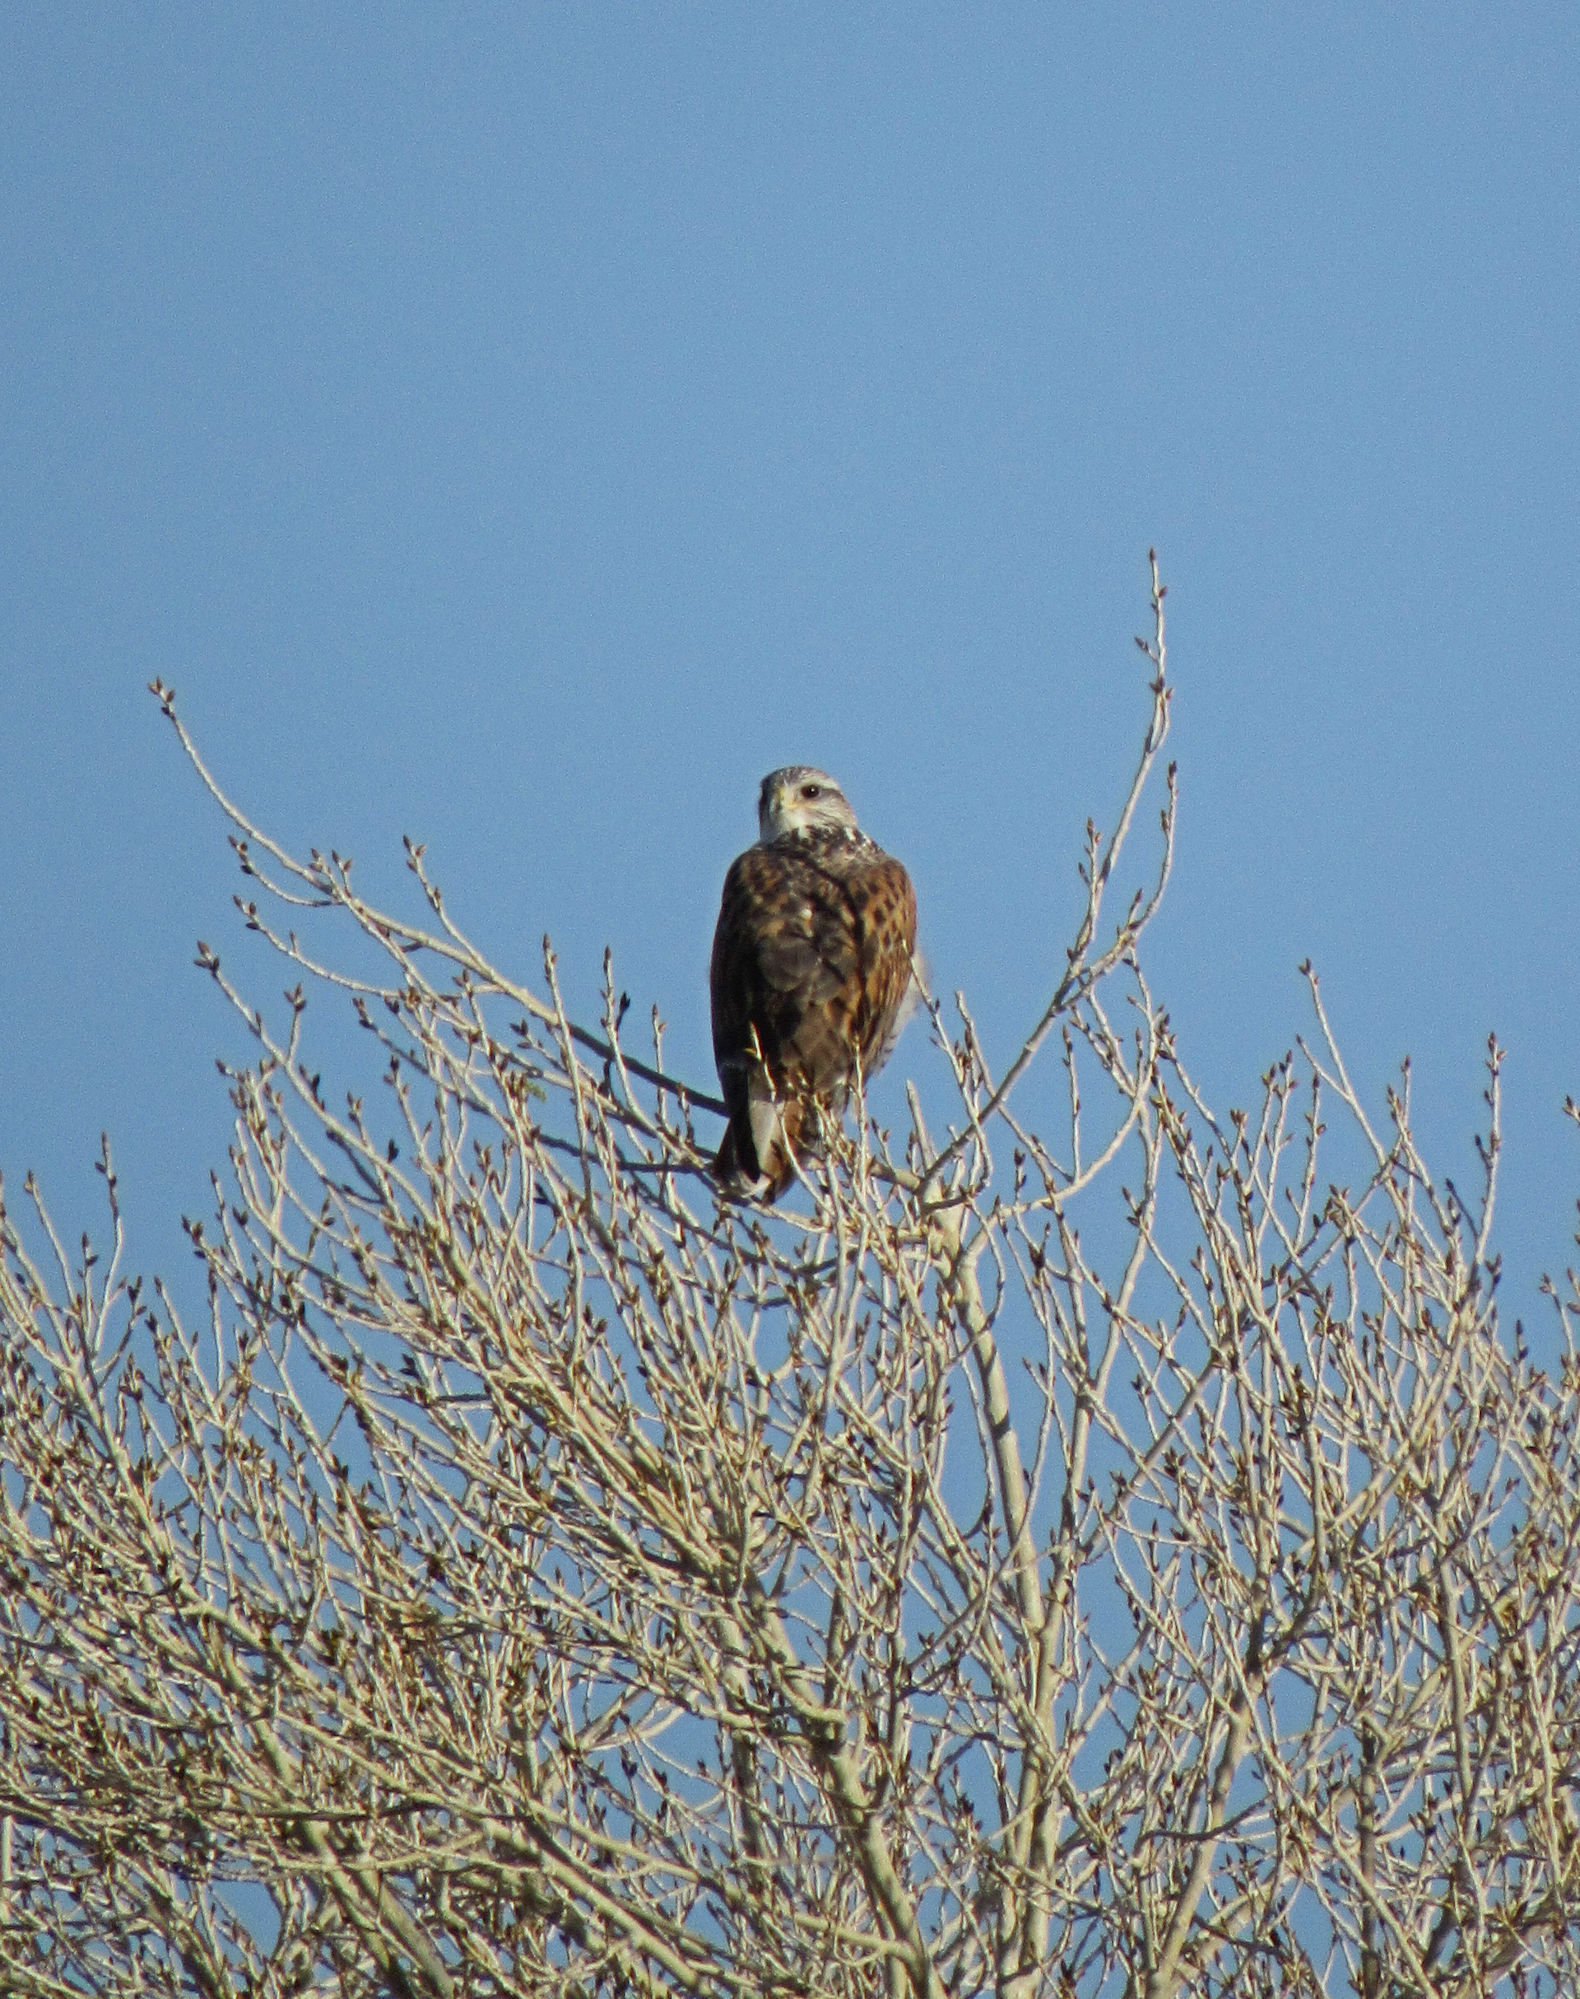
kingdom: Animalia
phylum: Chordata
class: Aves
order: Accipitriformes
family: Accipitridae
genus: Buteo
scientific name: Buteo regalis
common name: Ferruginous hawk
